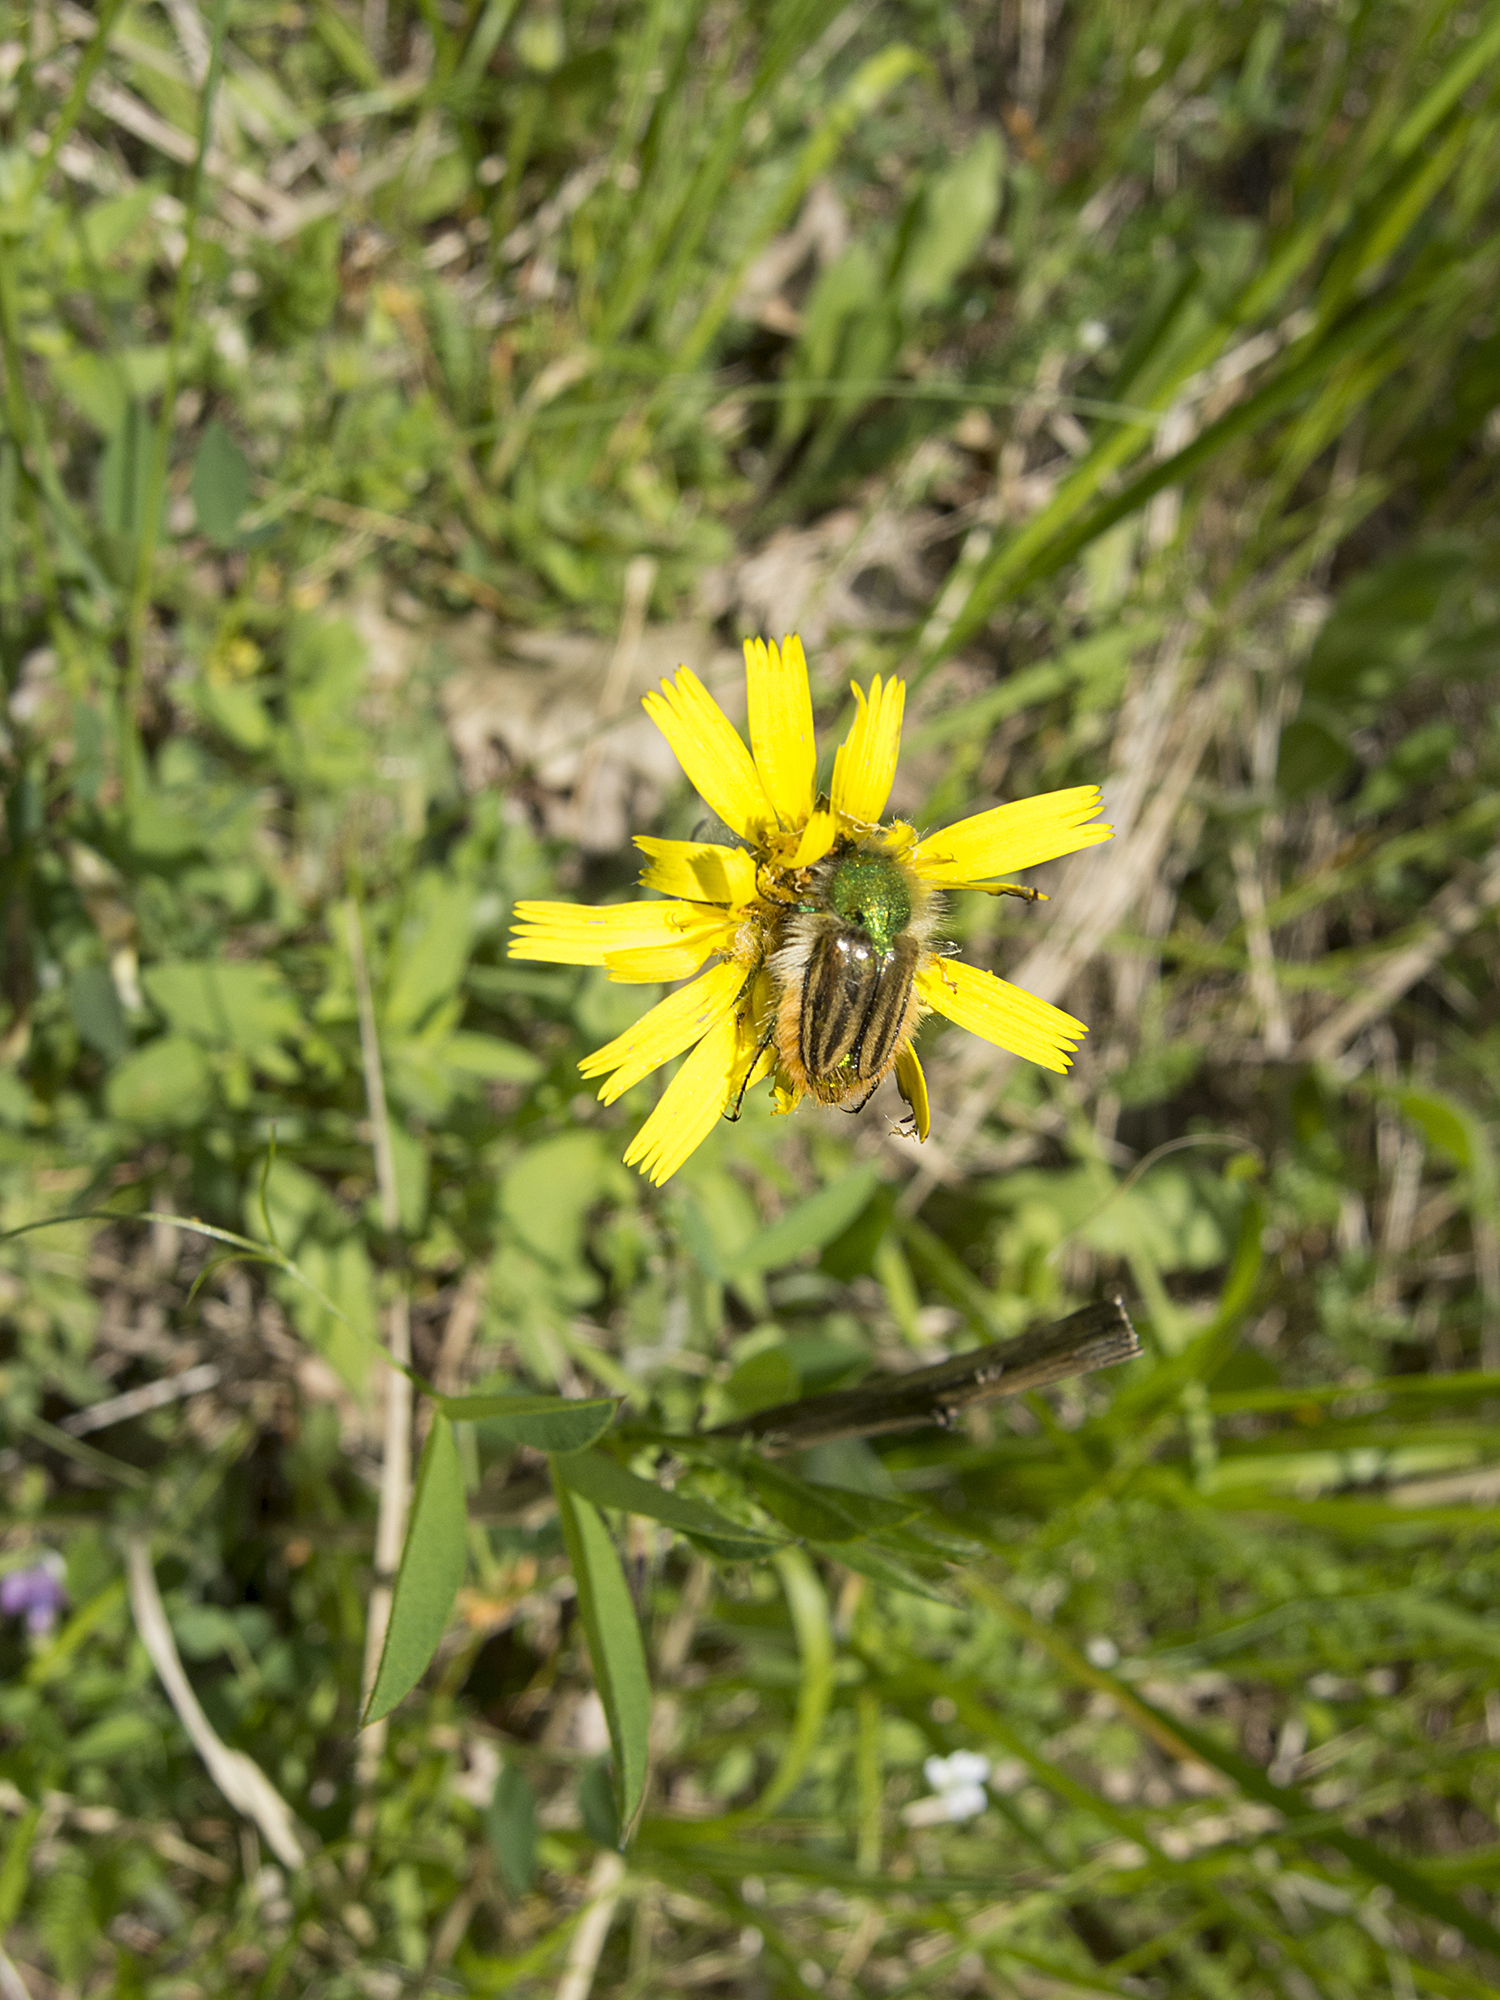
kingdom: Animalia
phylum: Arthropoda
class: Insecta
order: Coleoptera
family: Glaphyridae
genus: Eulasia
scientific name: Eulasia pareyssei
